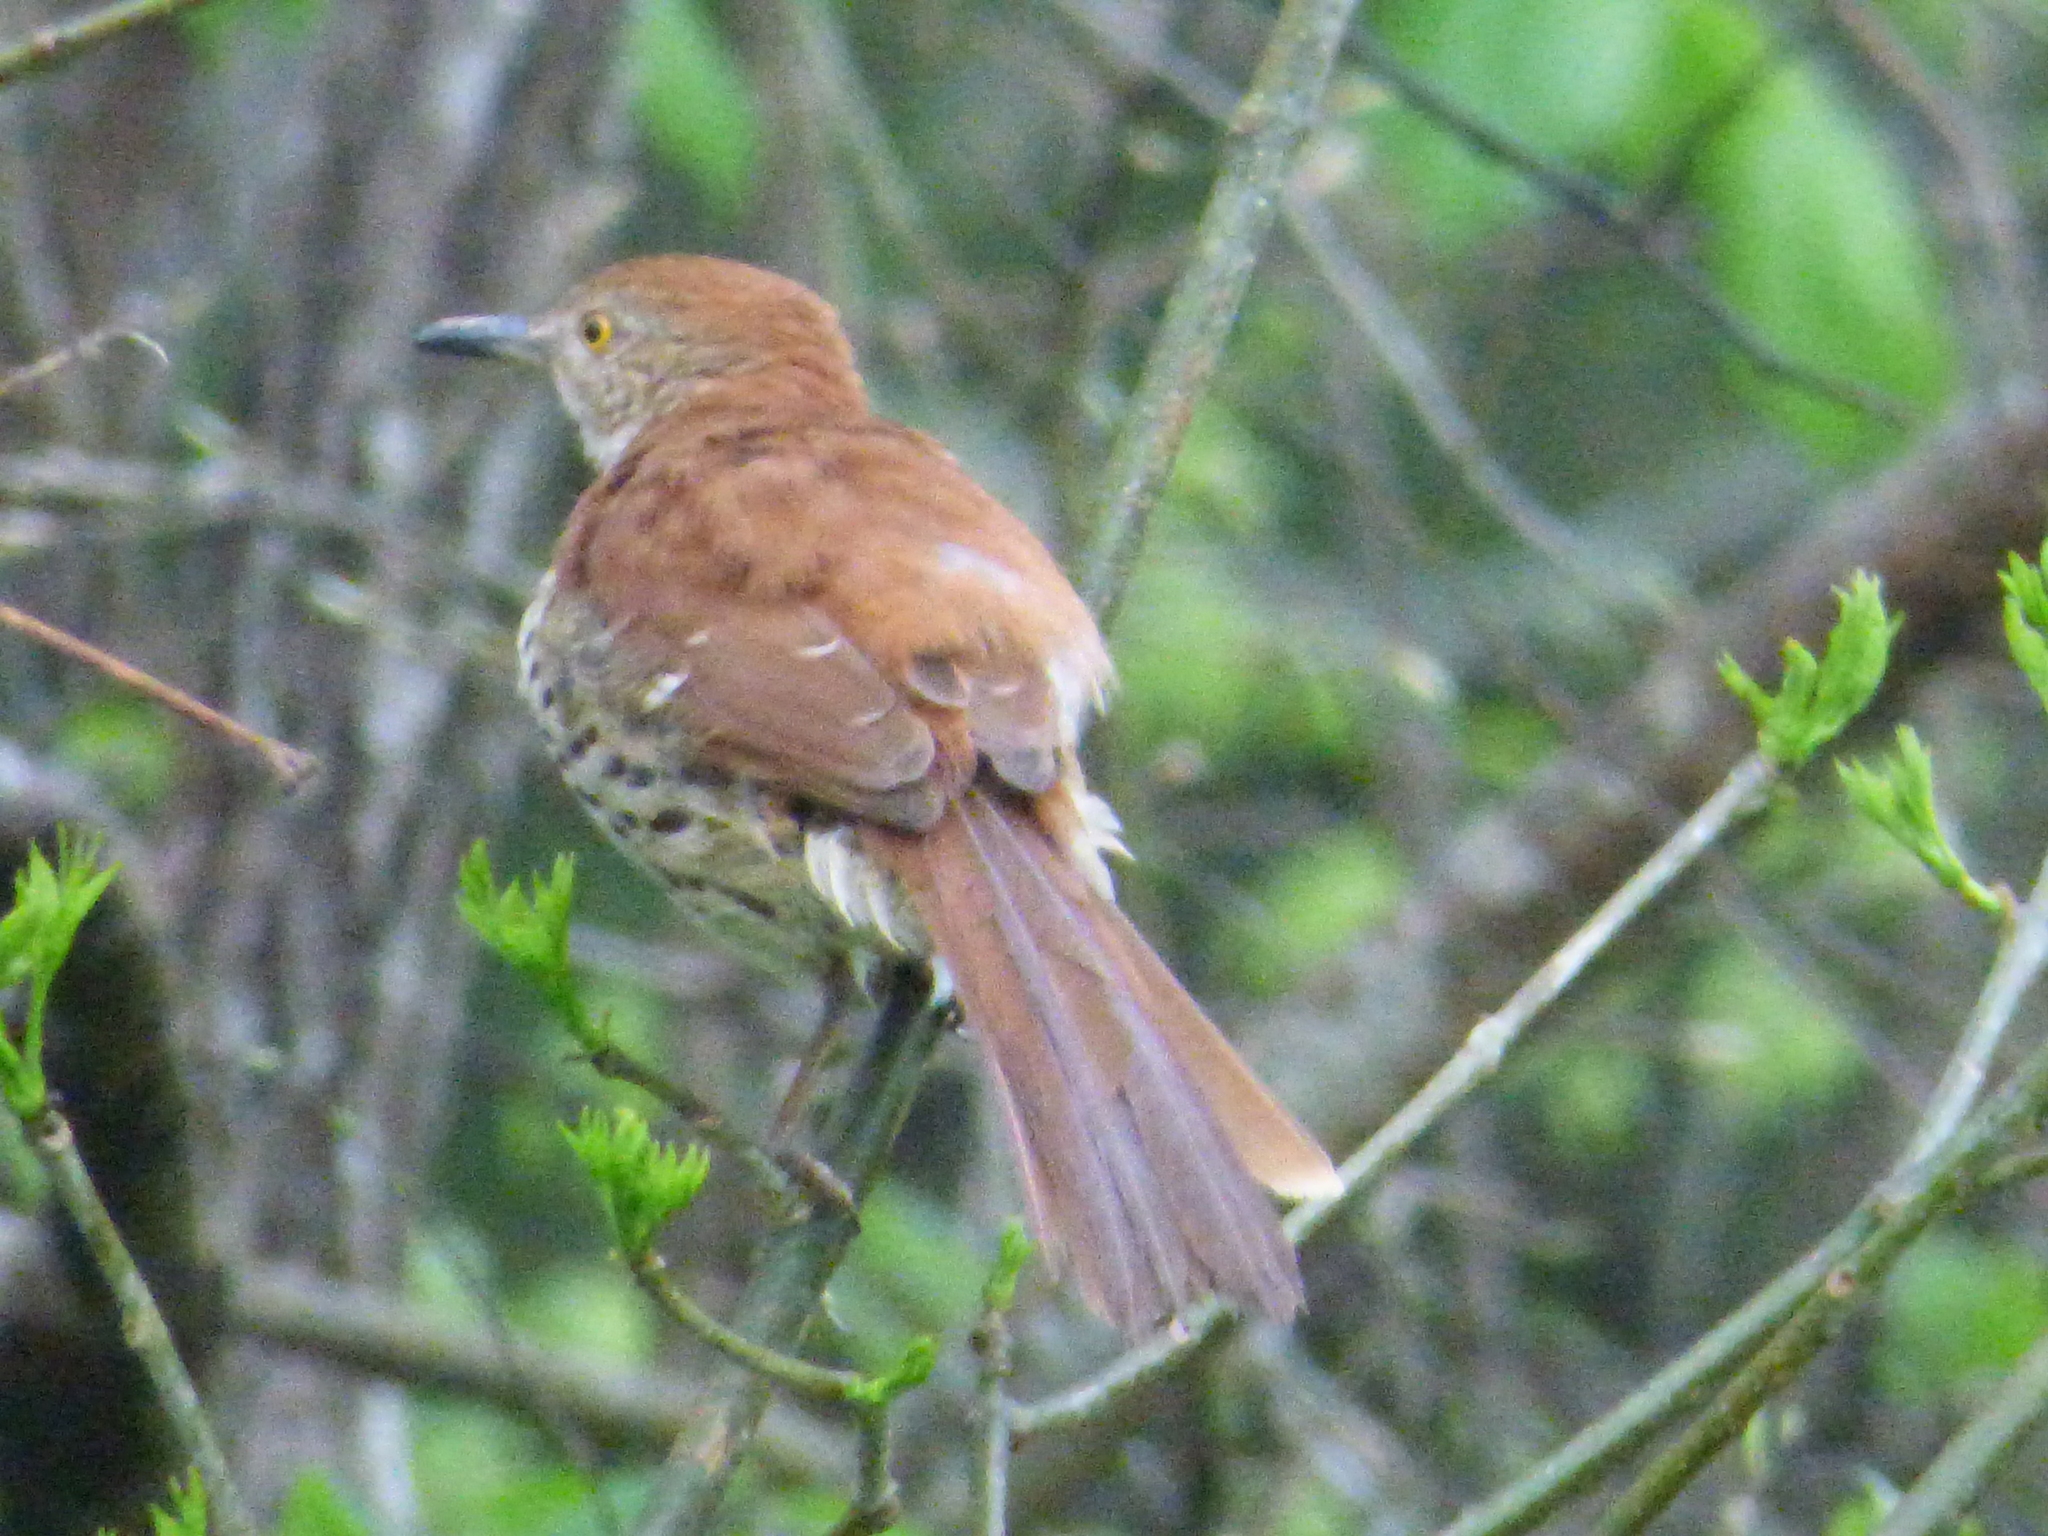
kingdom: Animalia
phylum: Chordata
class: Aves
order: Passeriformes
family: Mimidae
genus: Toxostoma
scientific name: Toxostoma rufum
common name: Brown thrasher
